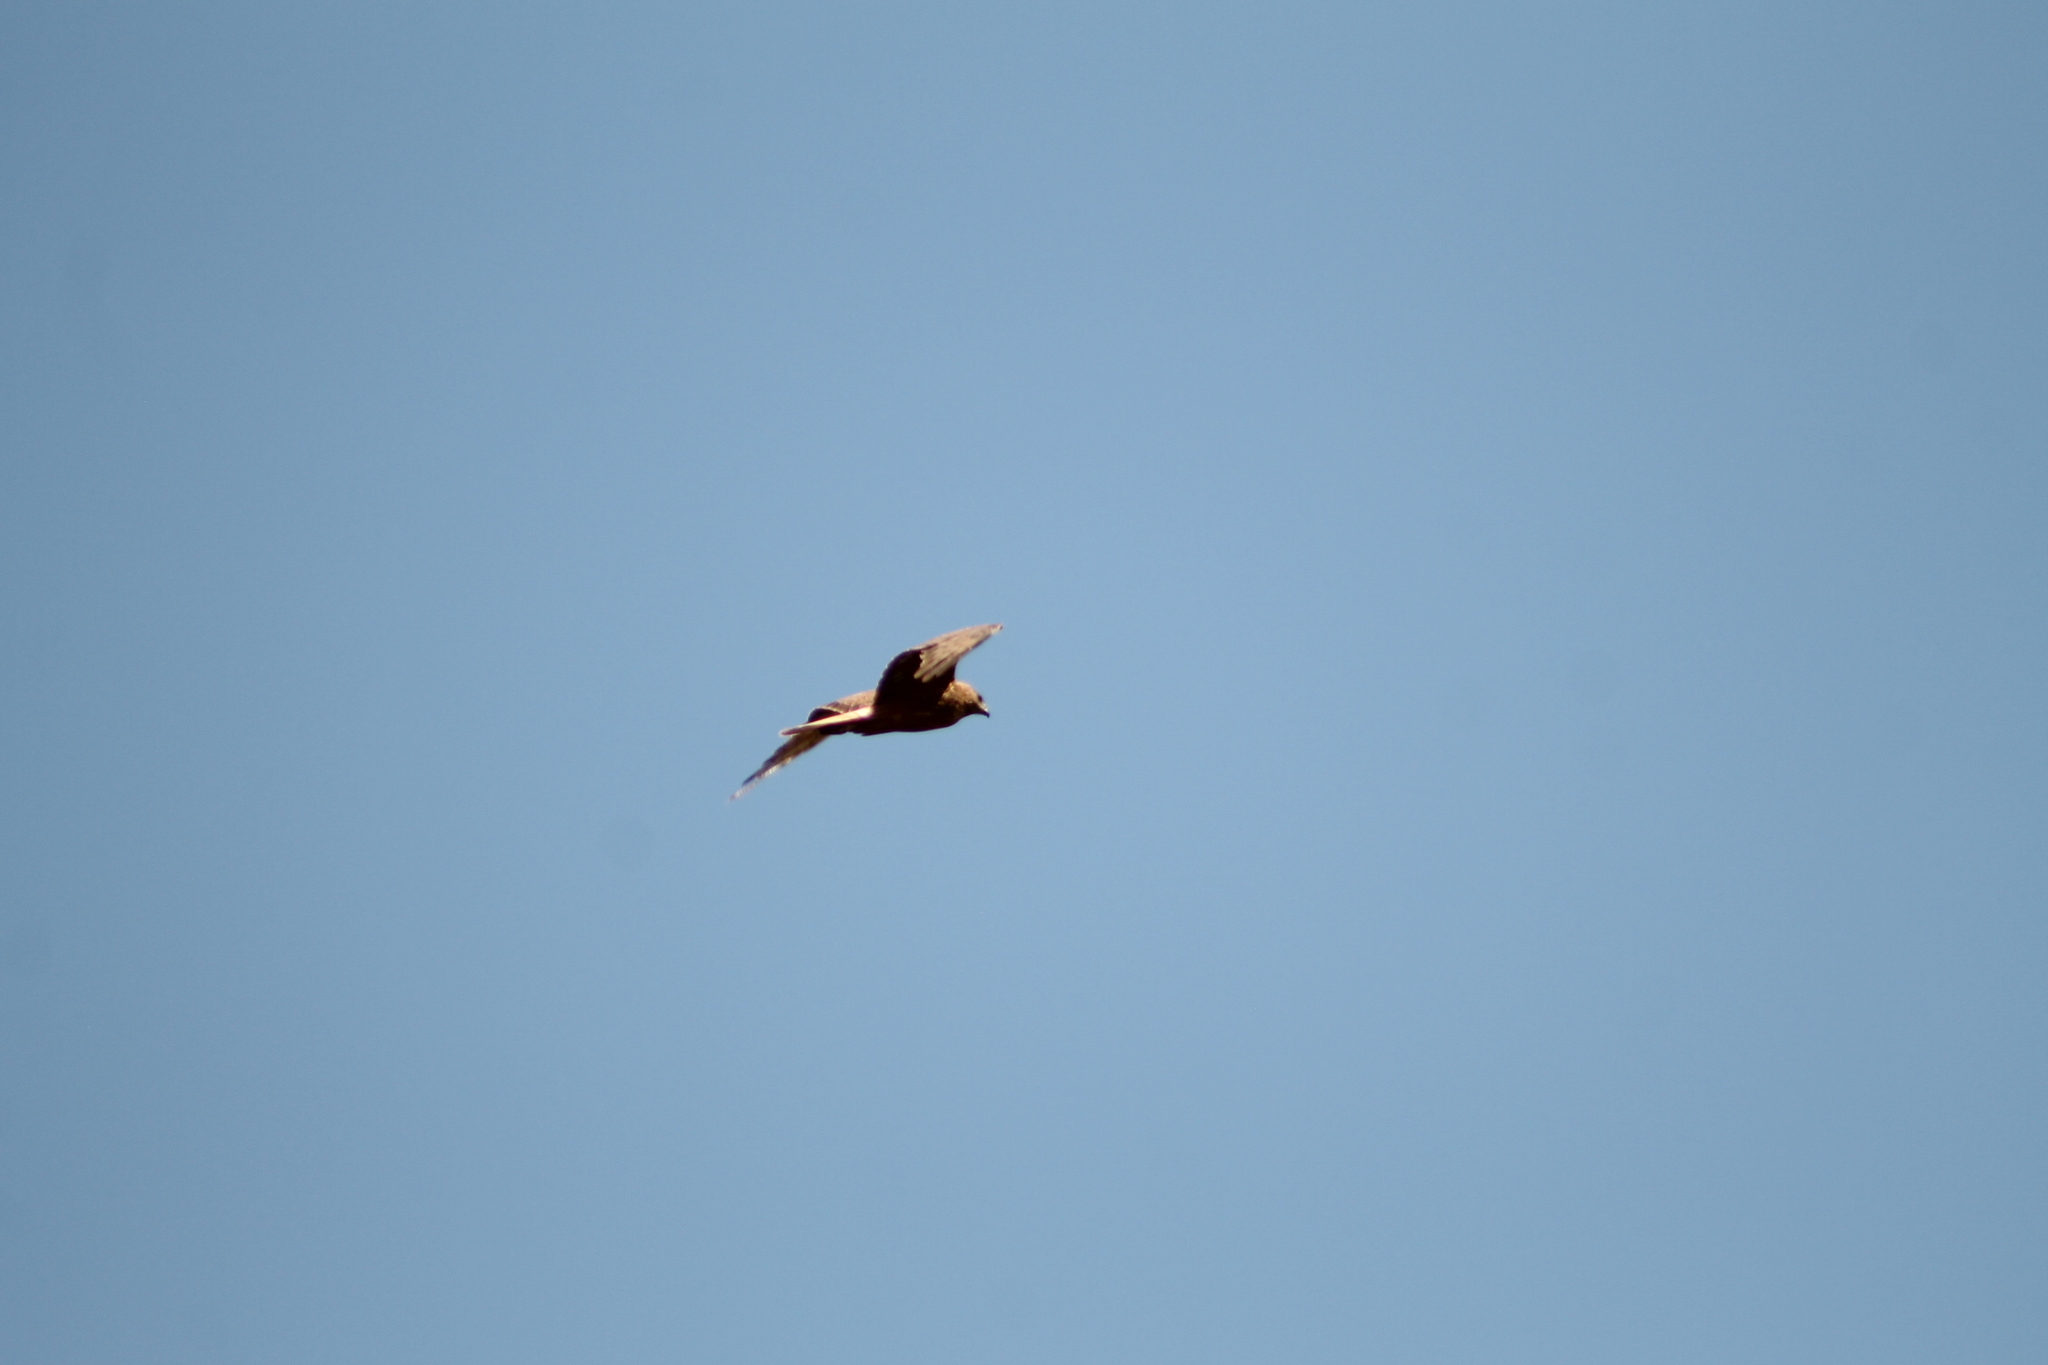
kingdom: Animalia
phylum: Chordata
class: Aves
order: Accipitriformes
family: Accipitridae
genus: Circus
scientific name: Circus approximans
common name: Swamp harrier
